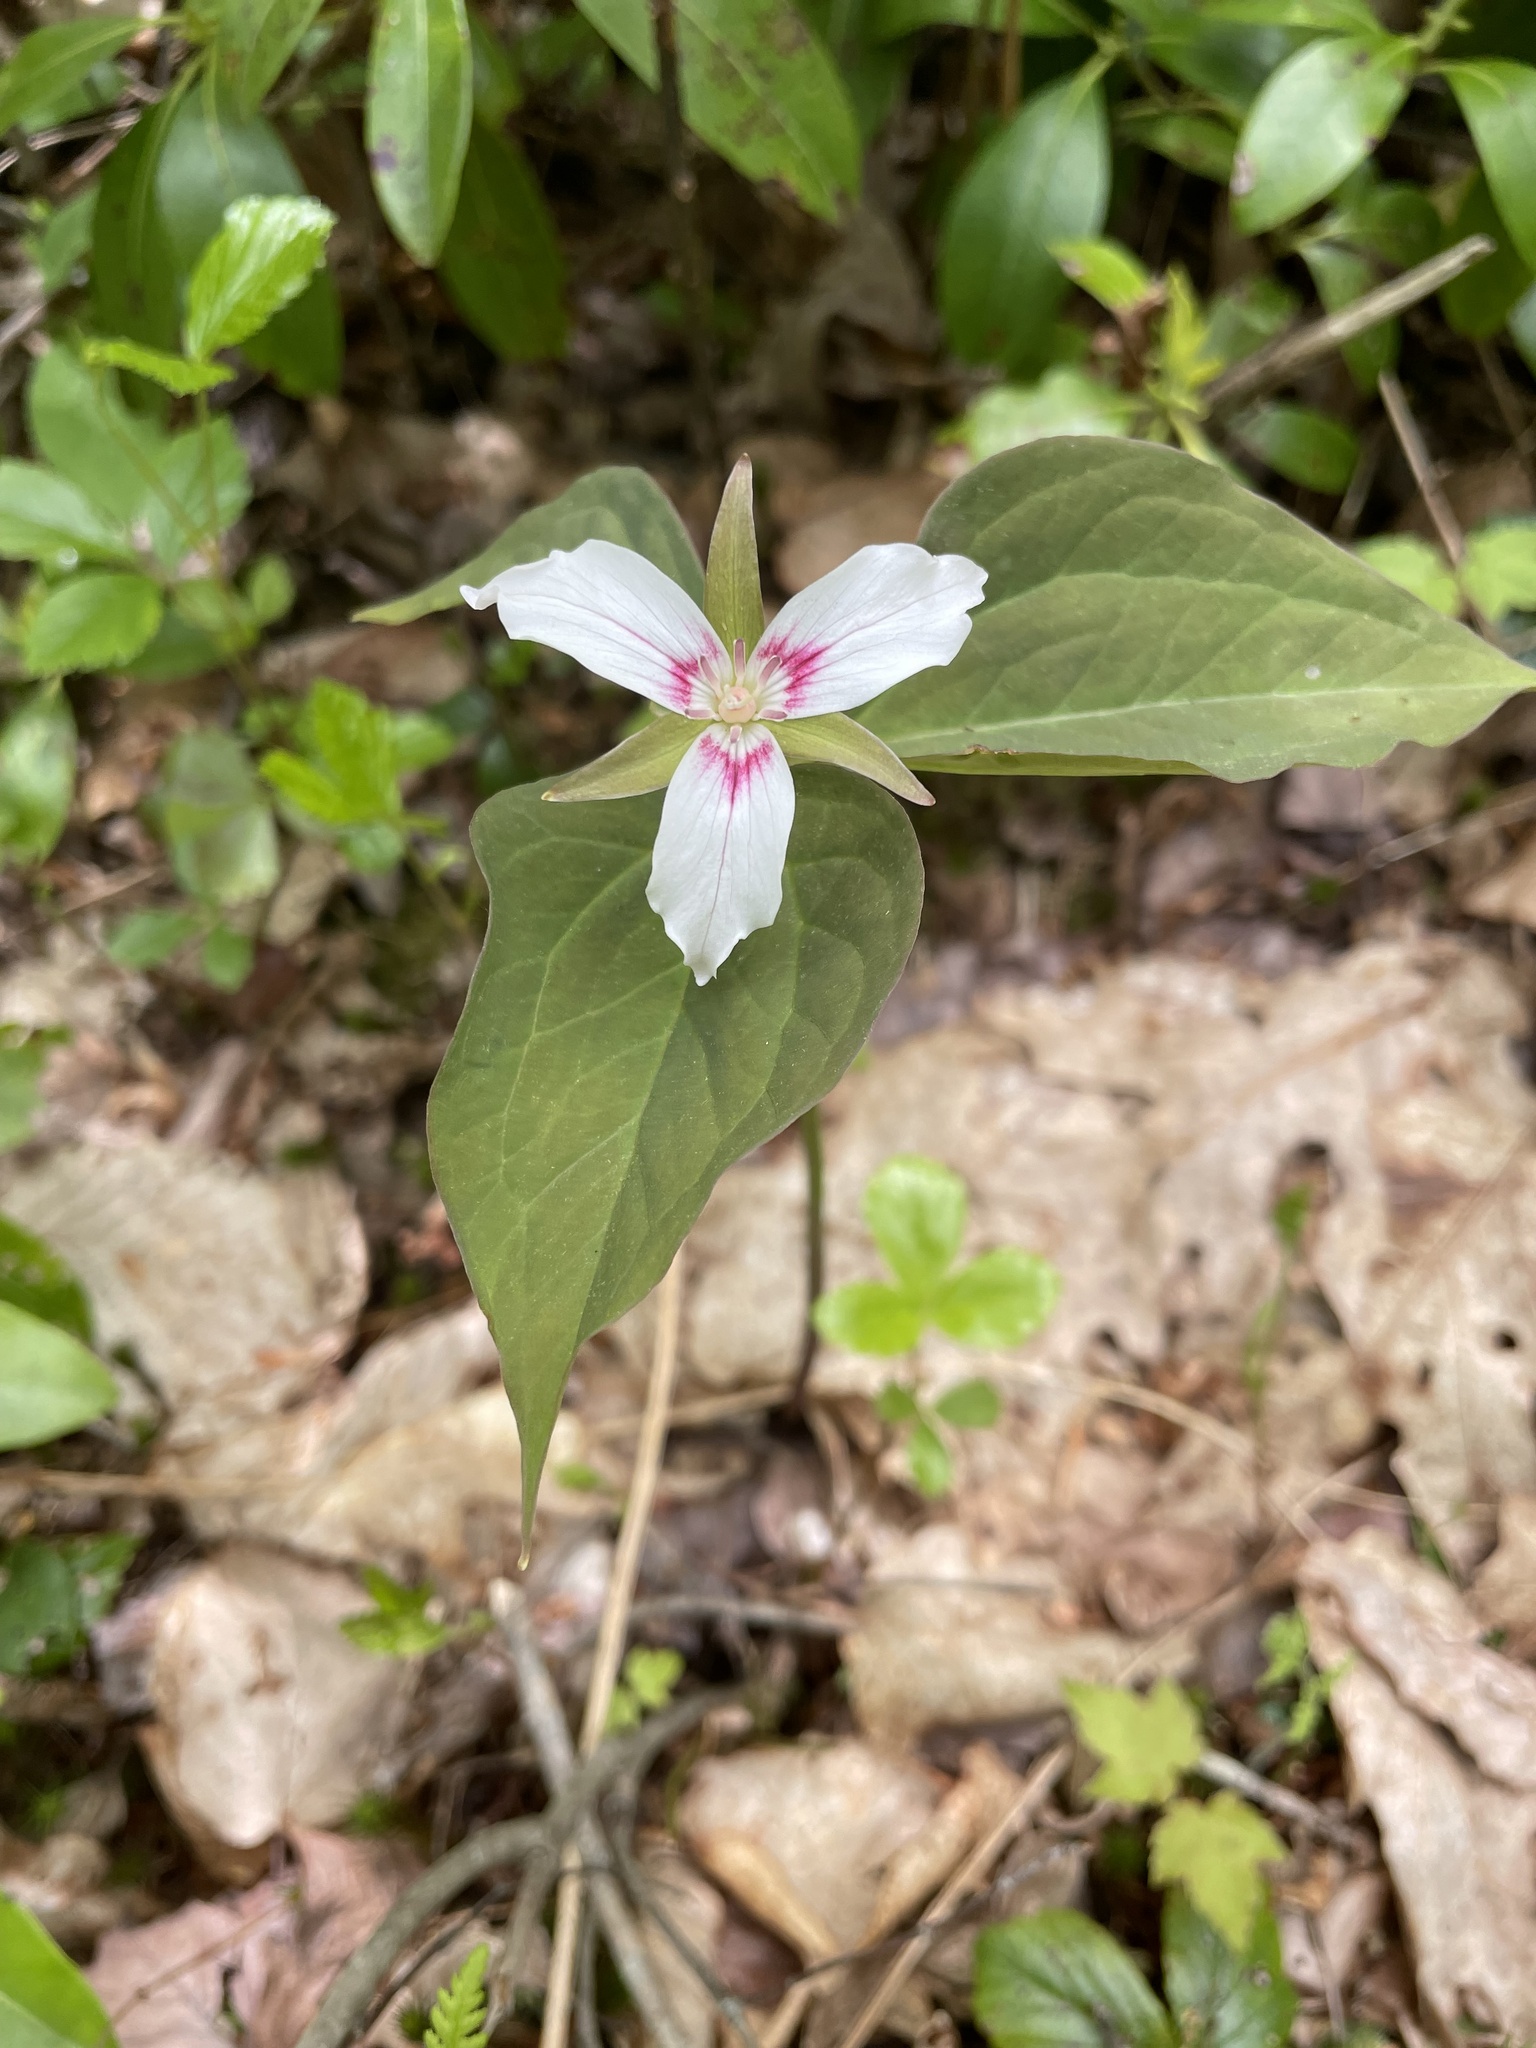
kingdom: Plantae
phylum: Tracheophyta
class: Liliopsida
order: Liliales
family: Melanthiaceae
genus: Trillium
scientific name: Trillium undulatum
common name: Paint trillium
